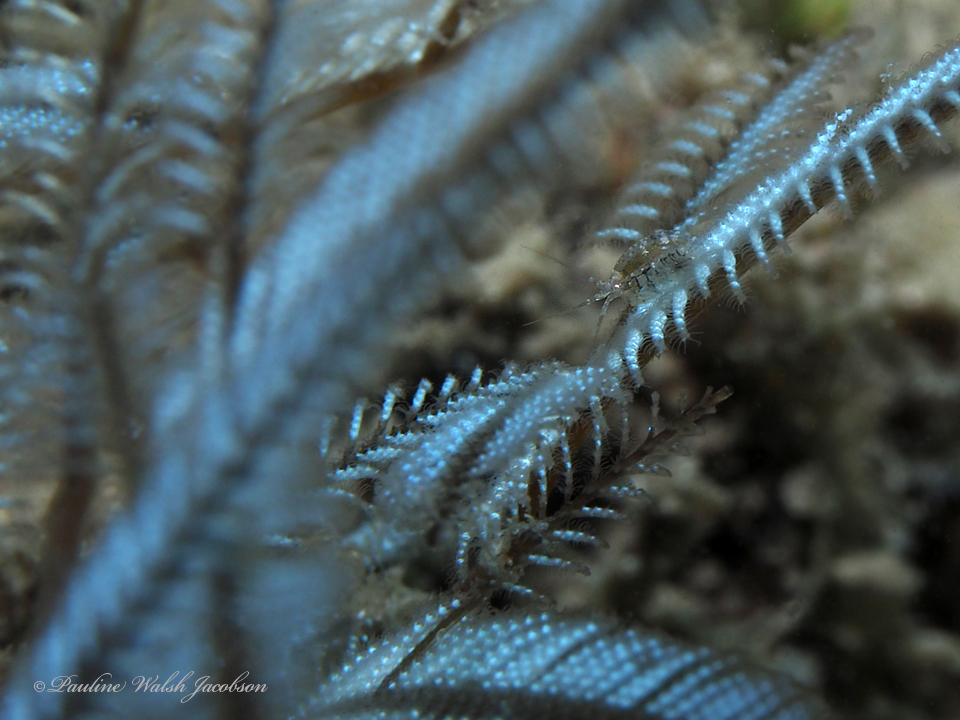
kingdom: Animalia
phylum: Cnidaria
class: Hydrozoa
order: Leptothecata
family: Aglaopheniidae
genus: Macrorhynchia
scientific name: Macrorhynchia philippina
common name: Stinging hydroid
